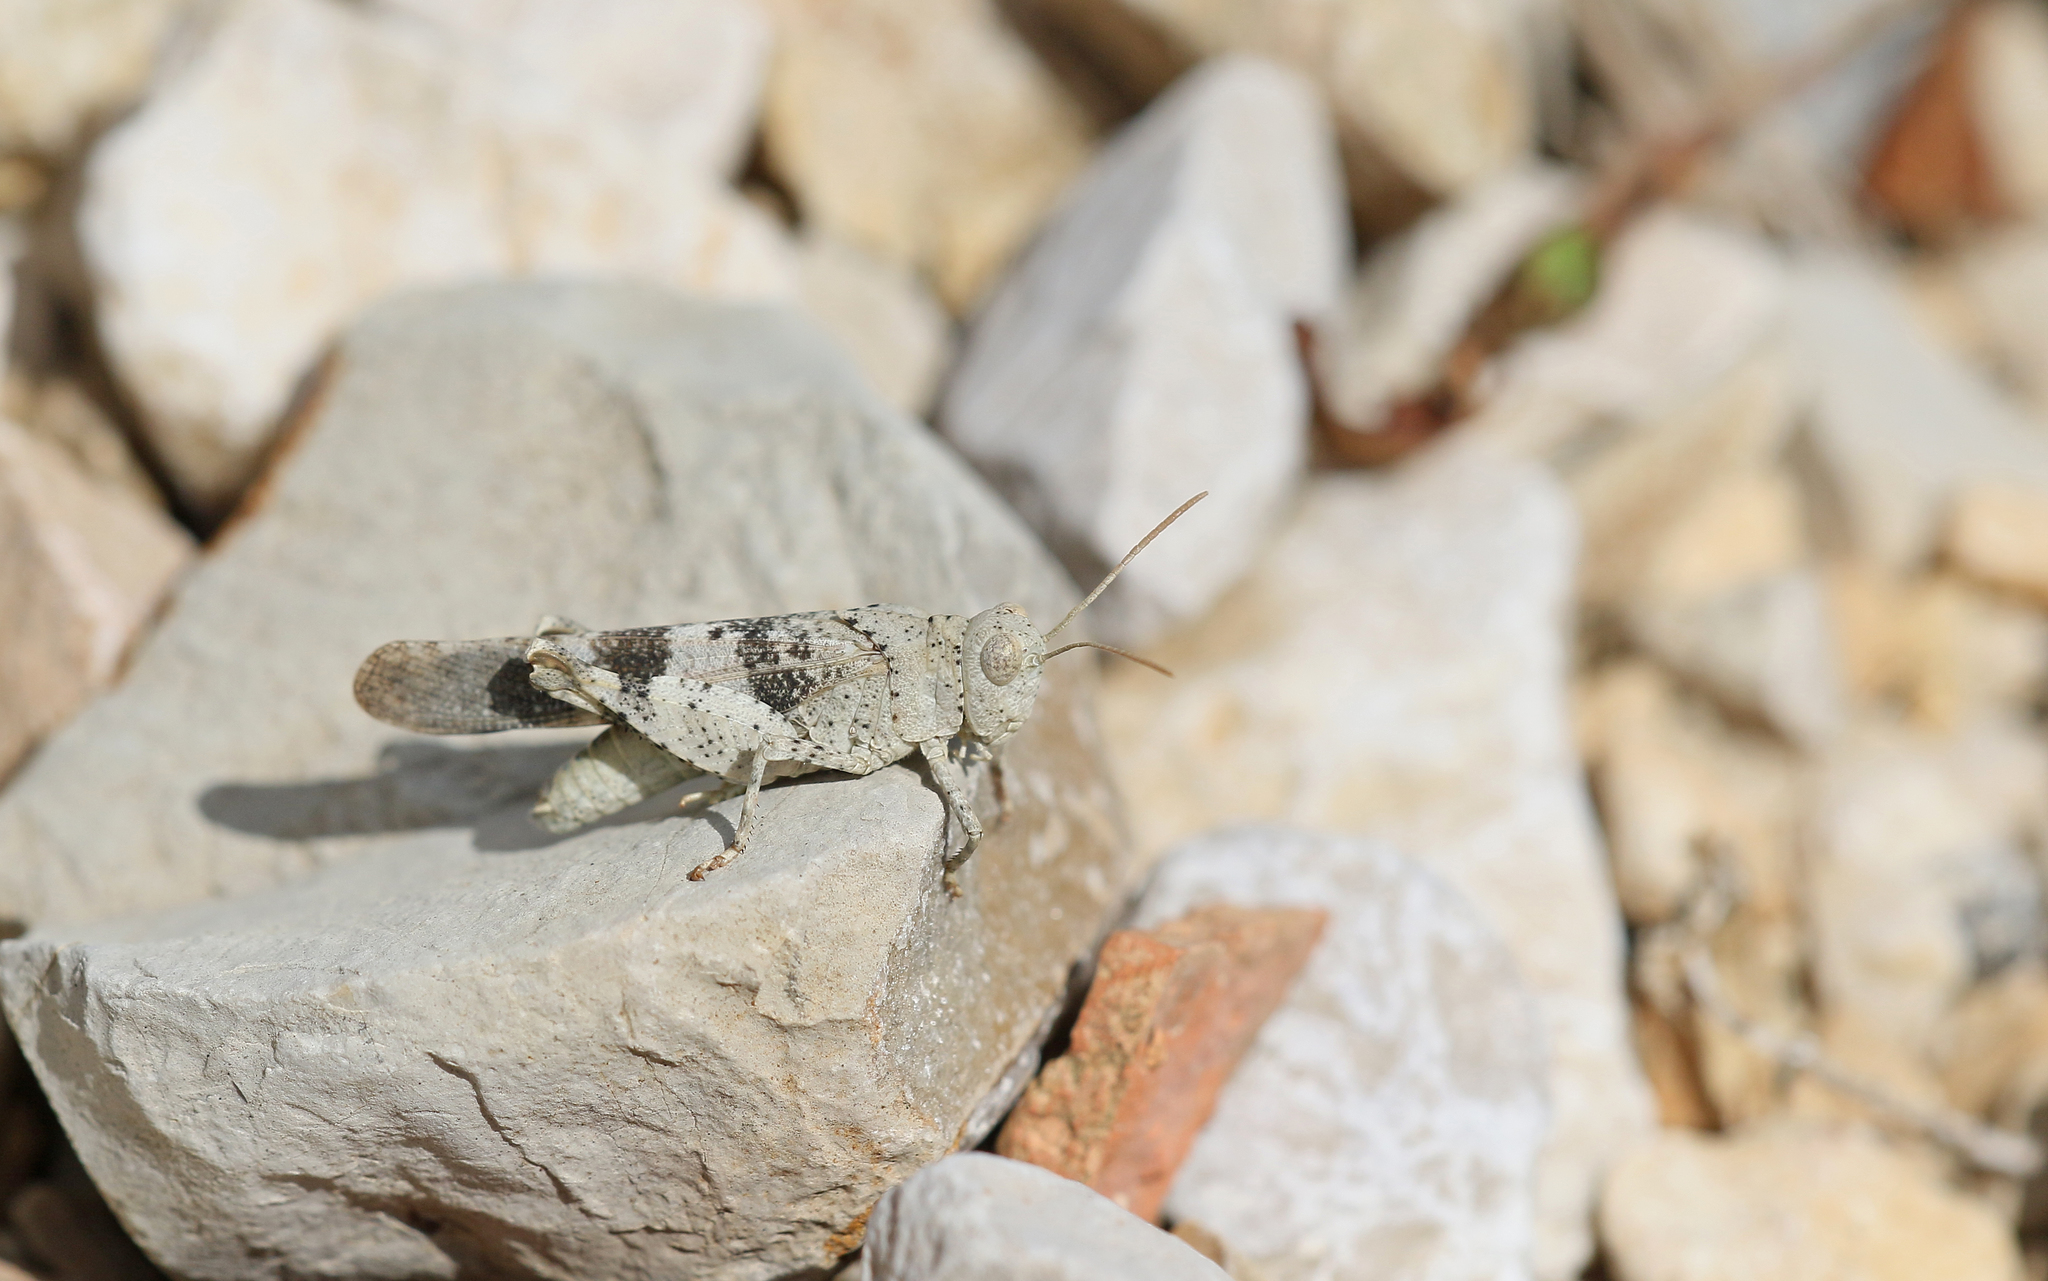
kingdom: Animalia
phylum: Arthropoda
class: Insecta
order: Orthoptera
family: Acrididae
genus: Oedipoda
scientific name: Oedipoda germanica
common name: Red band-winged grasshopper
